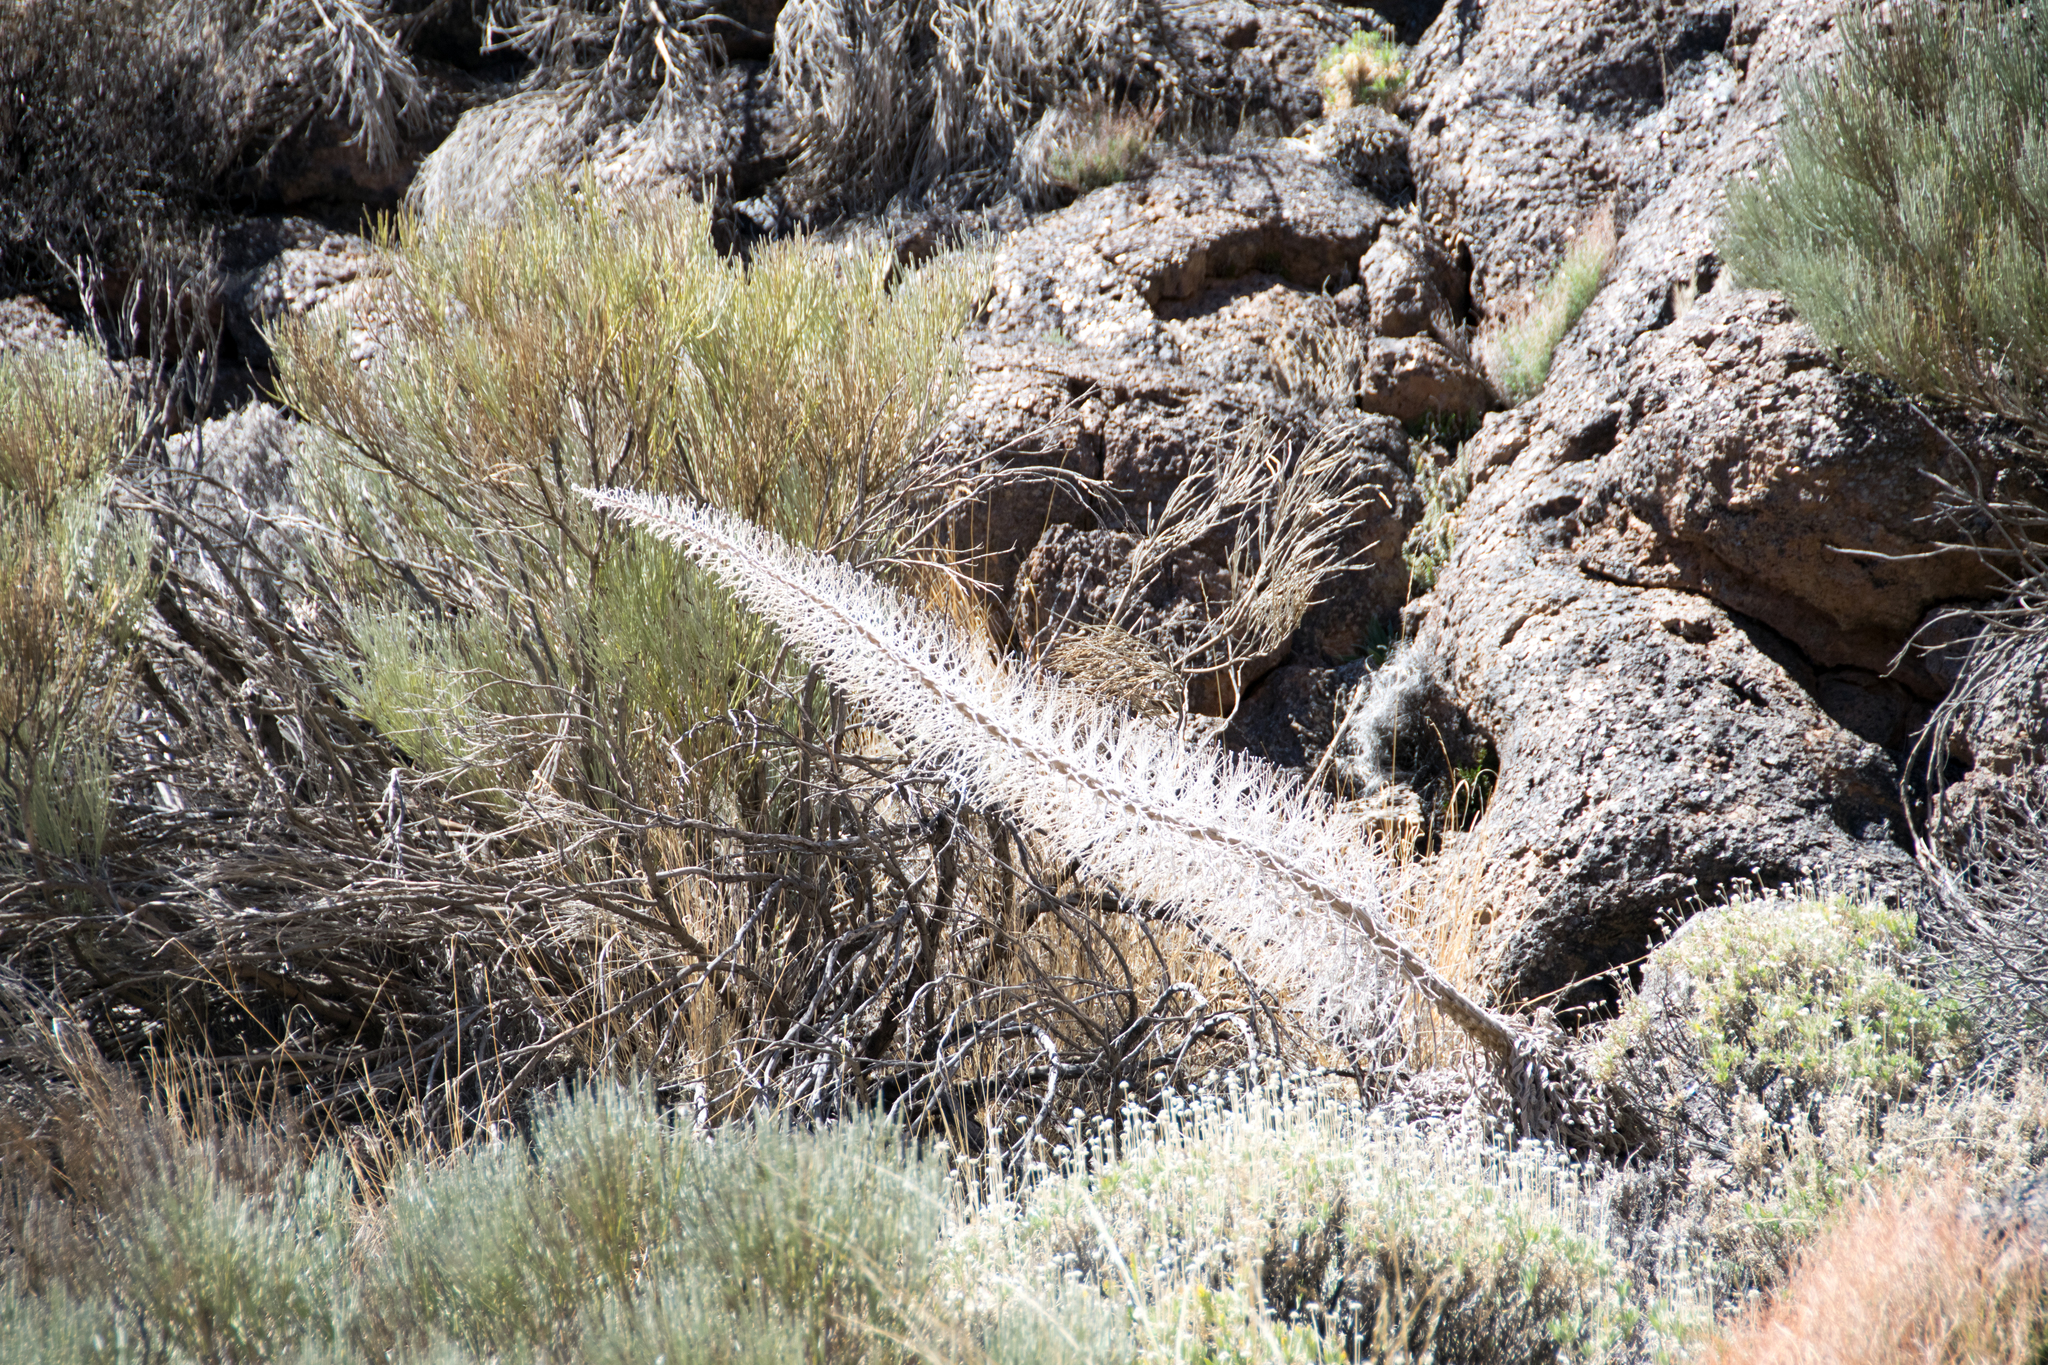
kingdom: Plantae
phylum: Tracheophyta
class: Magnoliopsida
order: Boraginales
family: Boraginaceae
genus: Echium
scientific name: Echium wildpretii
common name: Tower-of-jewels
